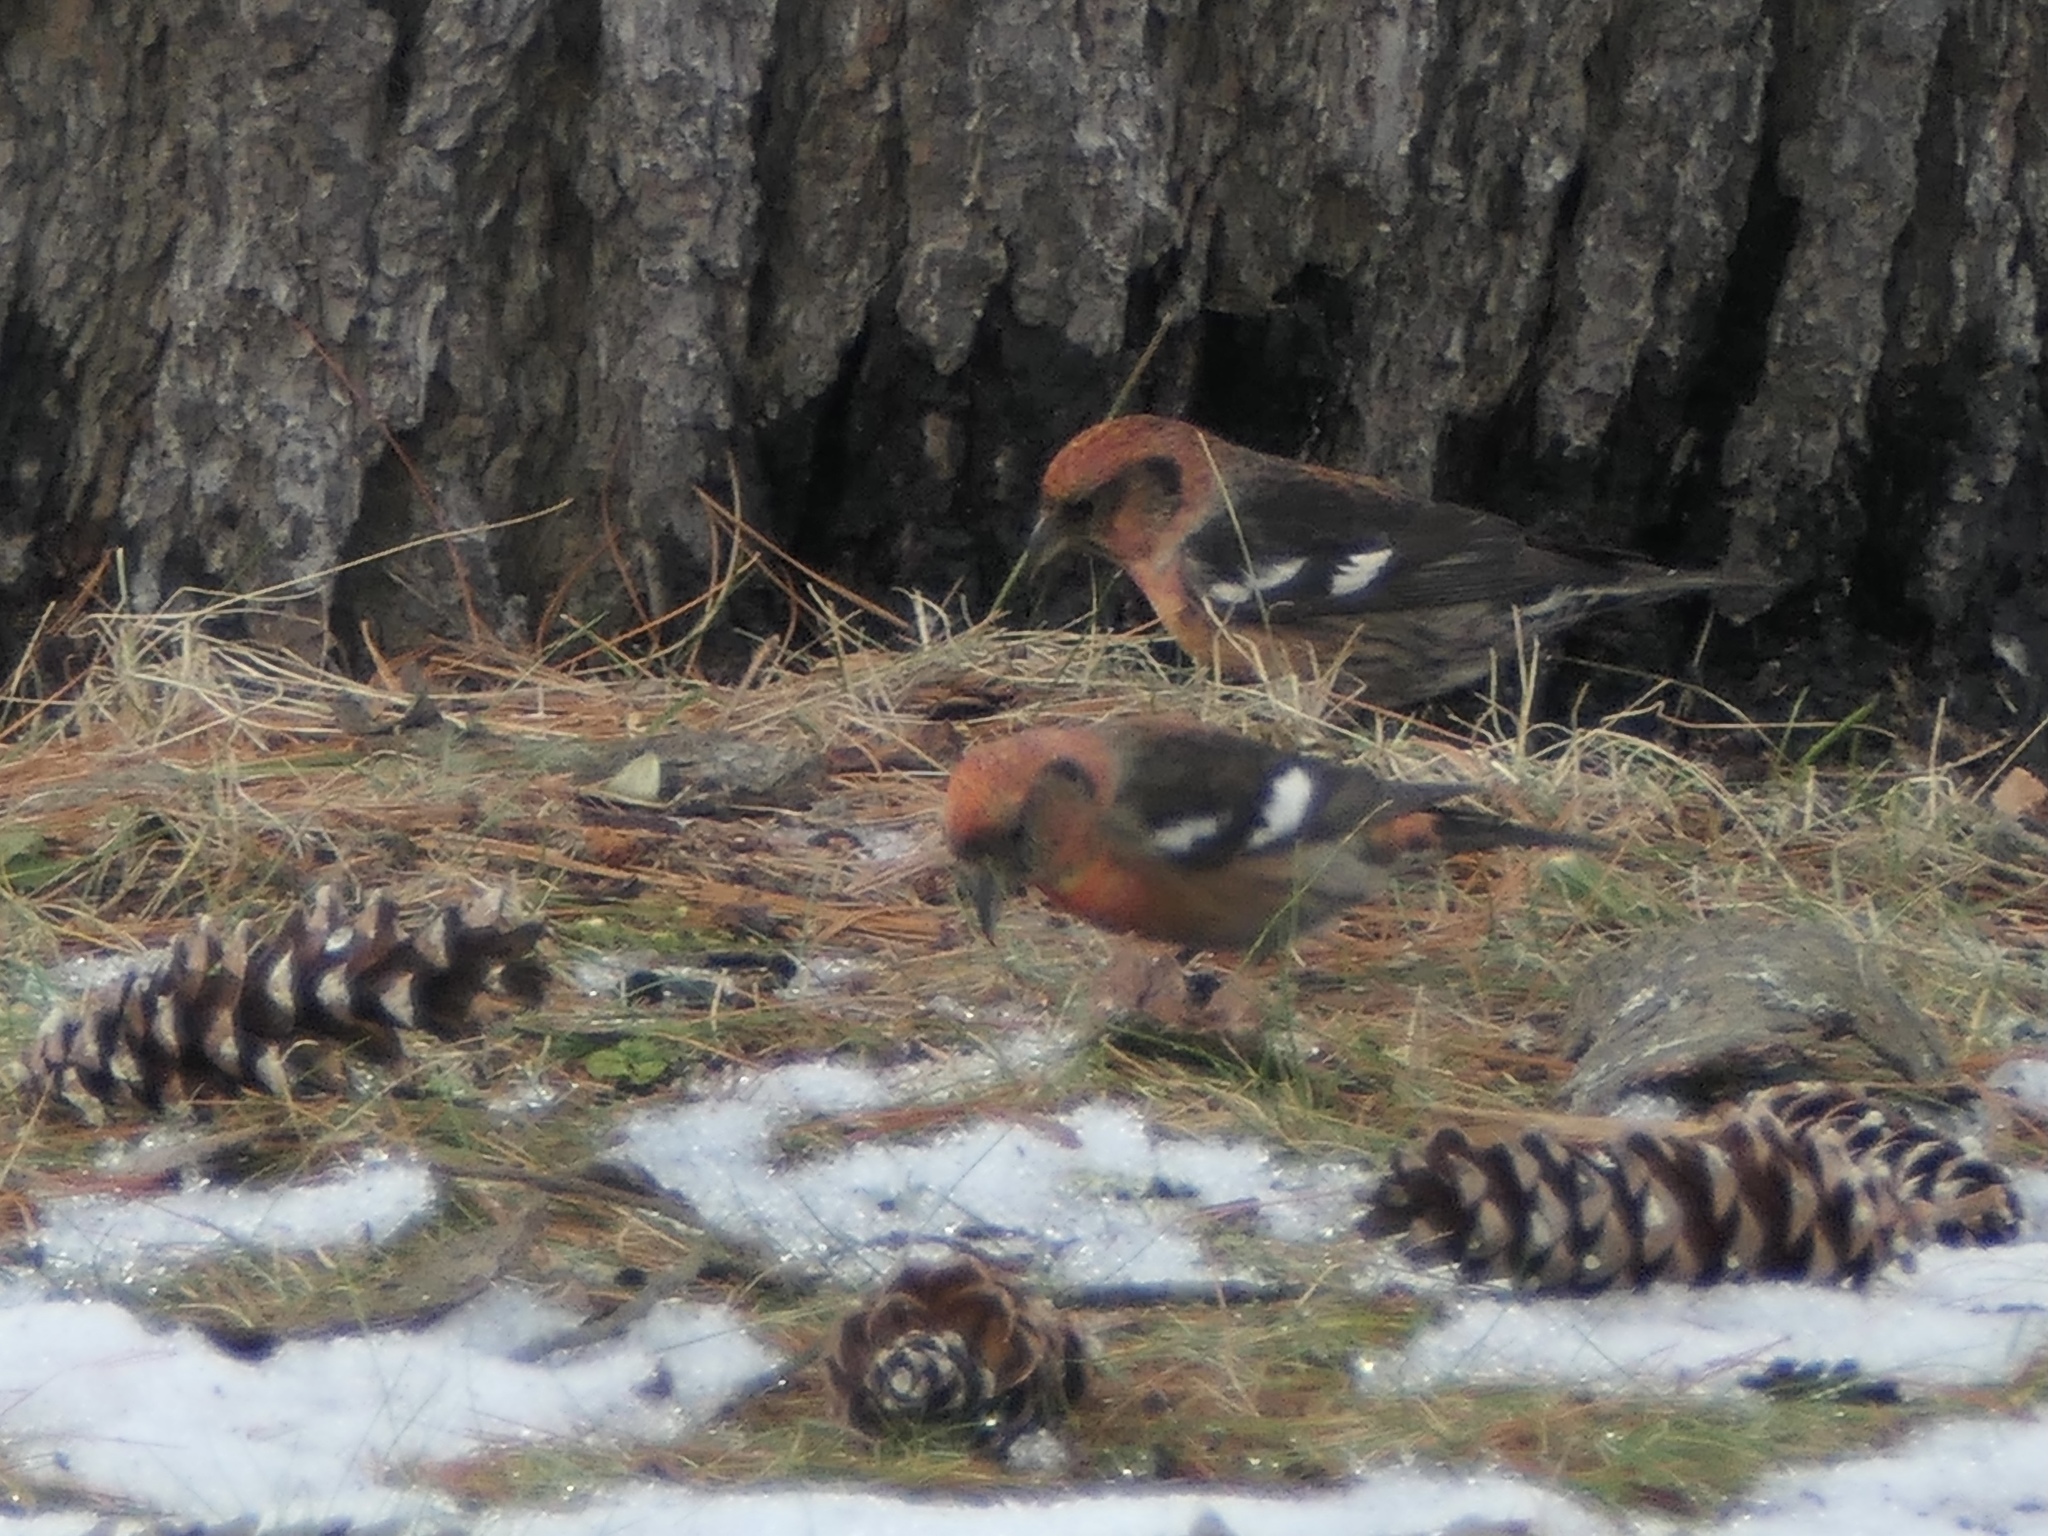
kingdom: Animalia
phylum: Chordata
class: Aves
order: Passeriformes
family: Fringillidae
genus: Loxia
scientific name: Loxia leucoptera
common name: Two-barred crossbill
